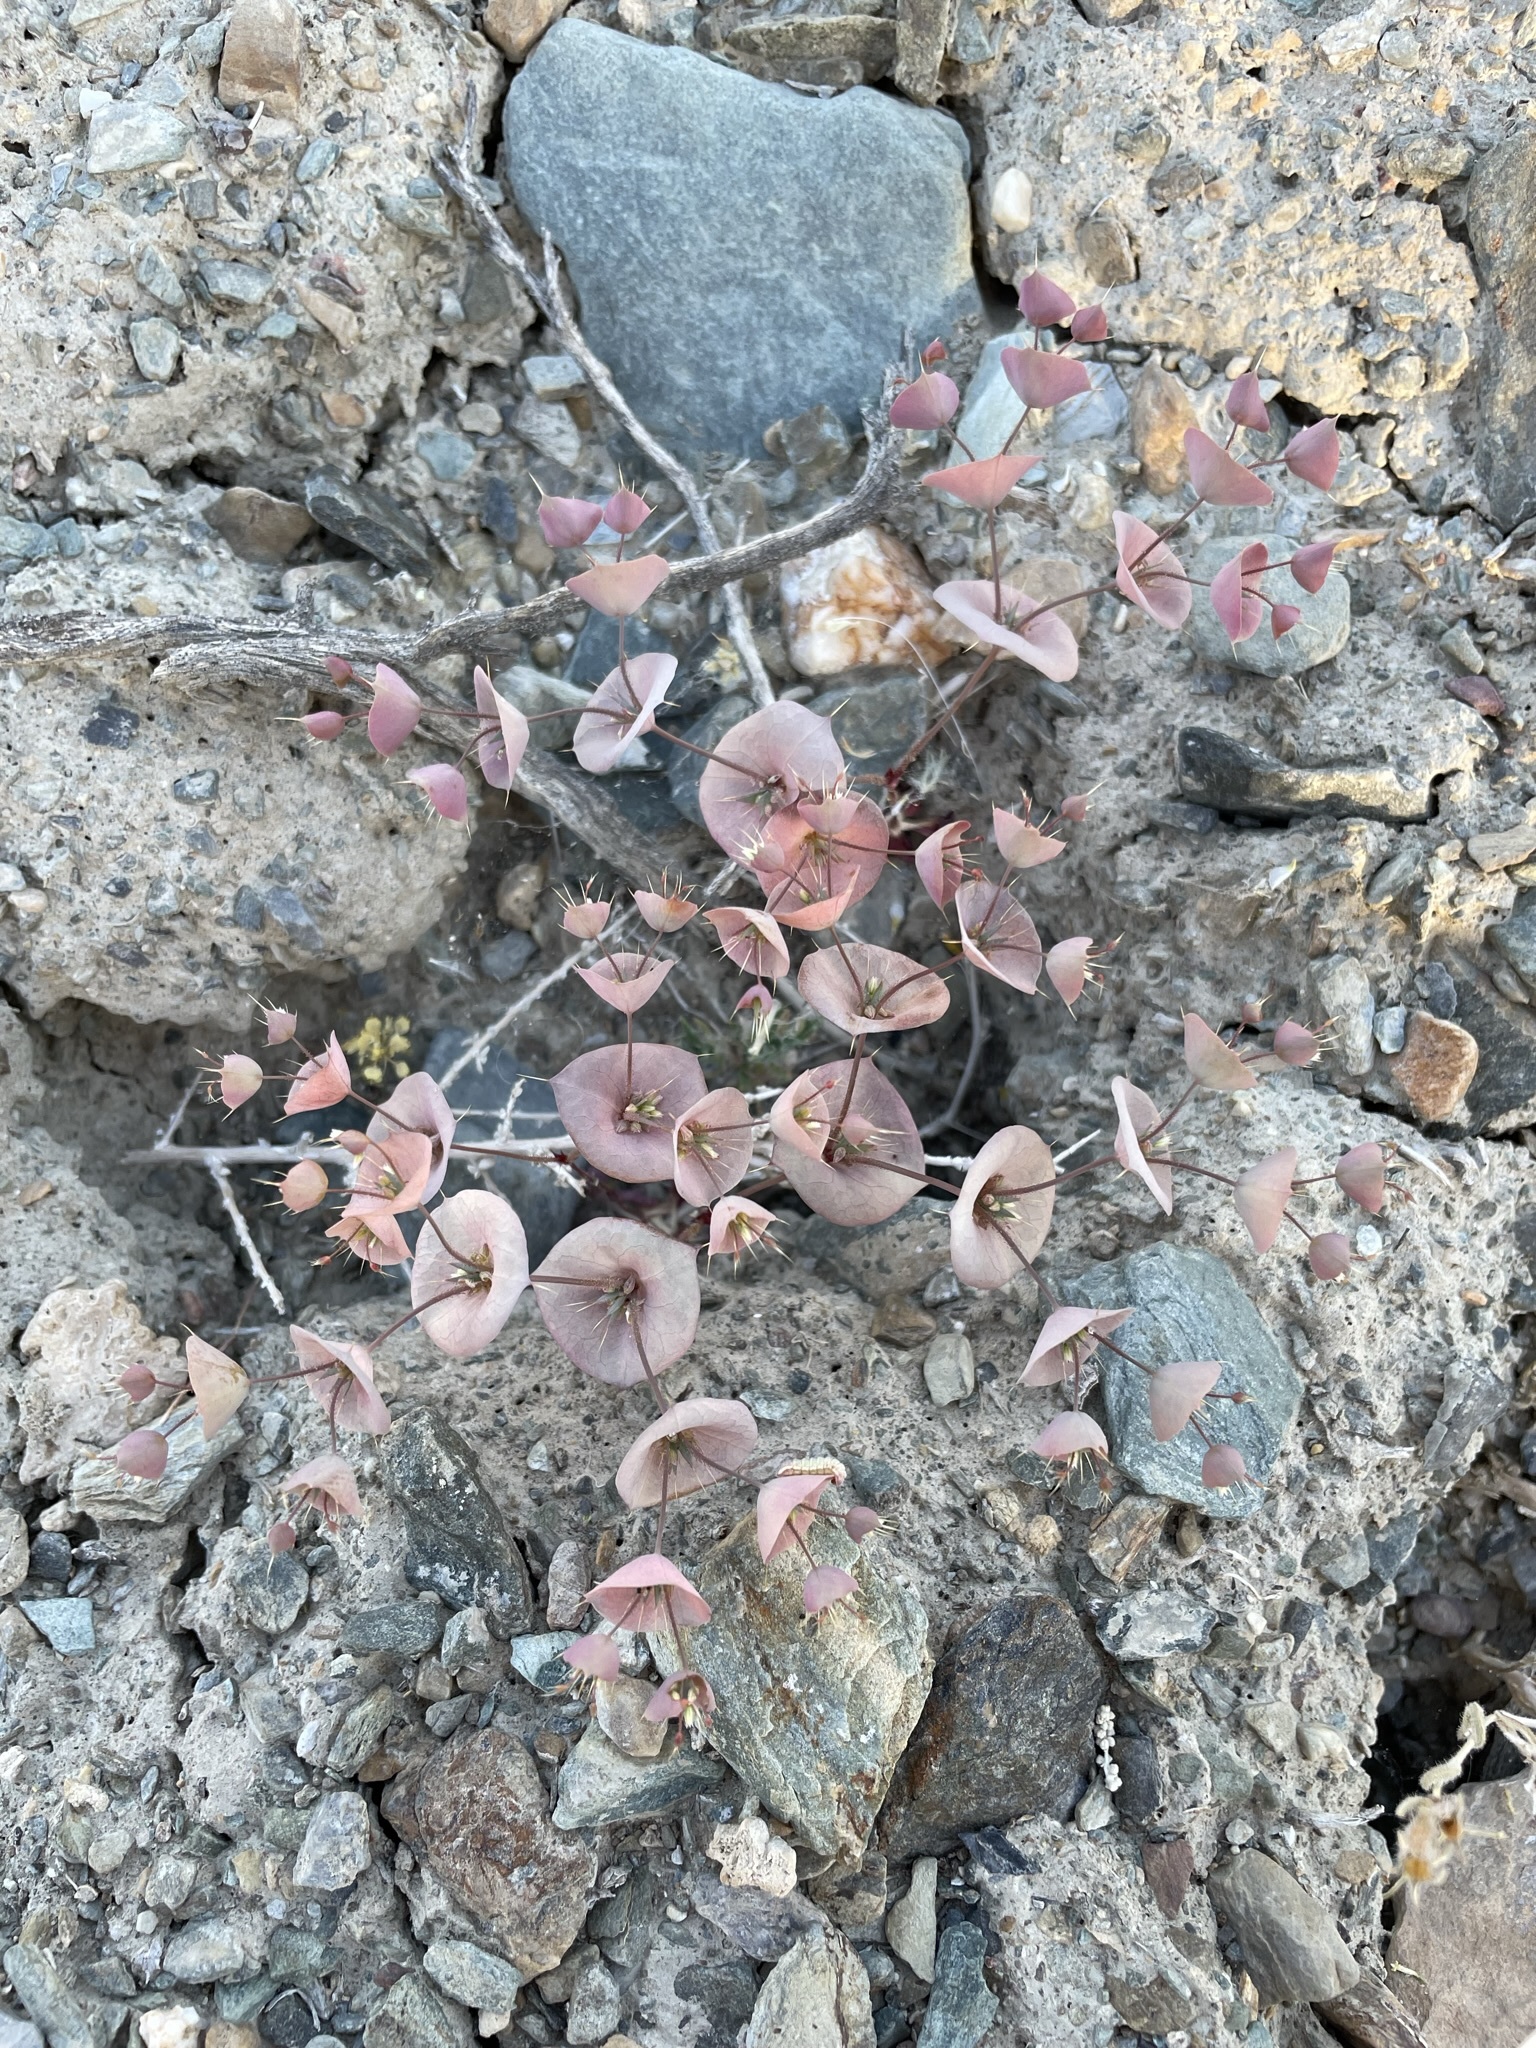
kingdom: Plantae
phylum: Tracheophyta
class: Magnoliopsida
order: Caryophyllales
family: Polygonaceae
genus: Oxytheca
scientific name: Oxytheca perfoliata
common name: Round-leaf puncturebract
